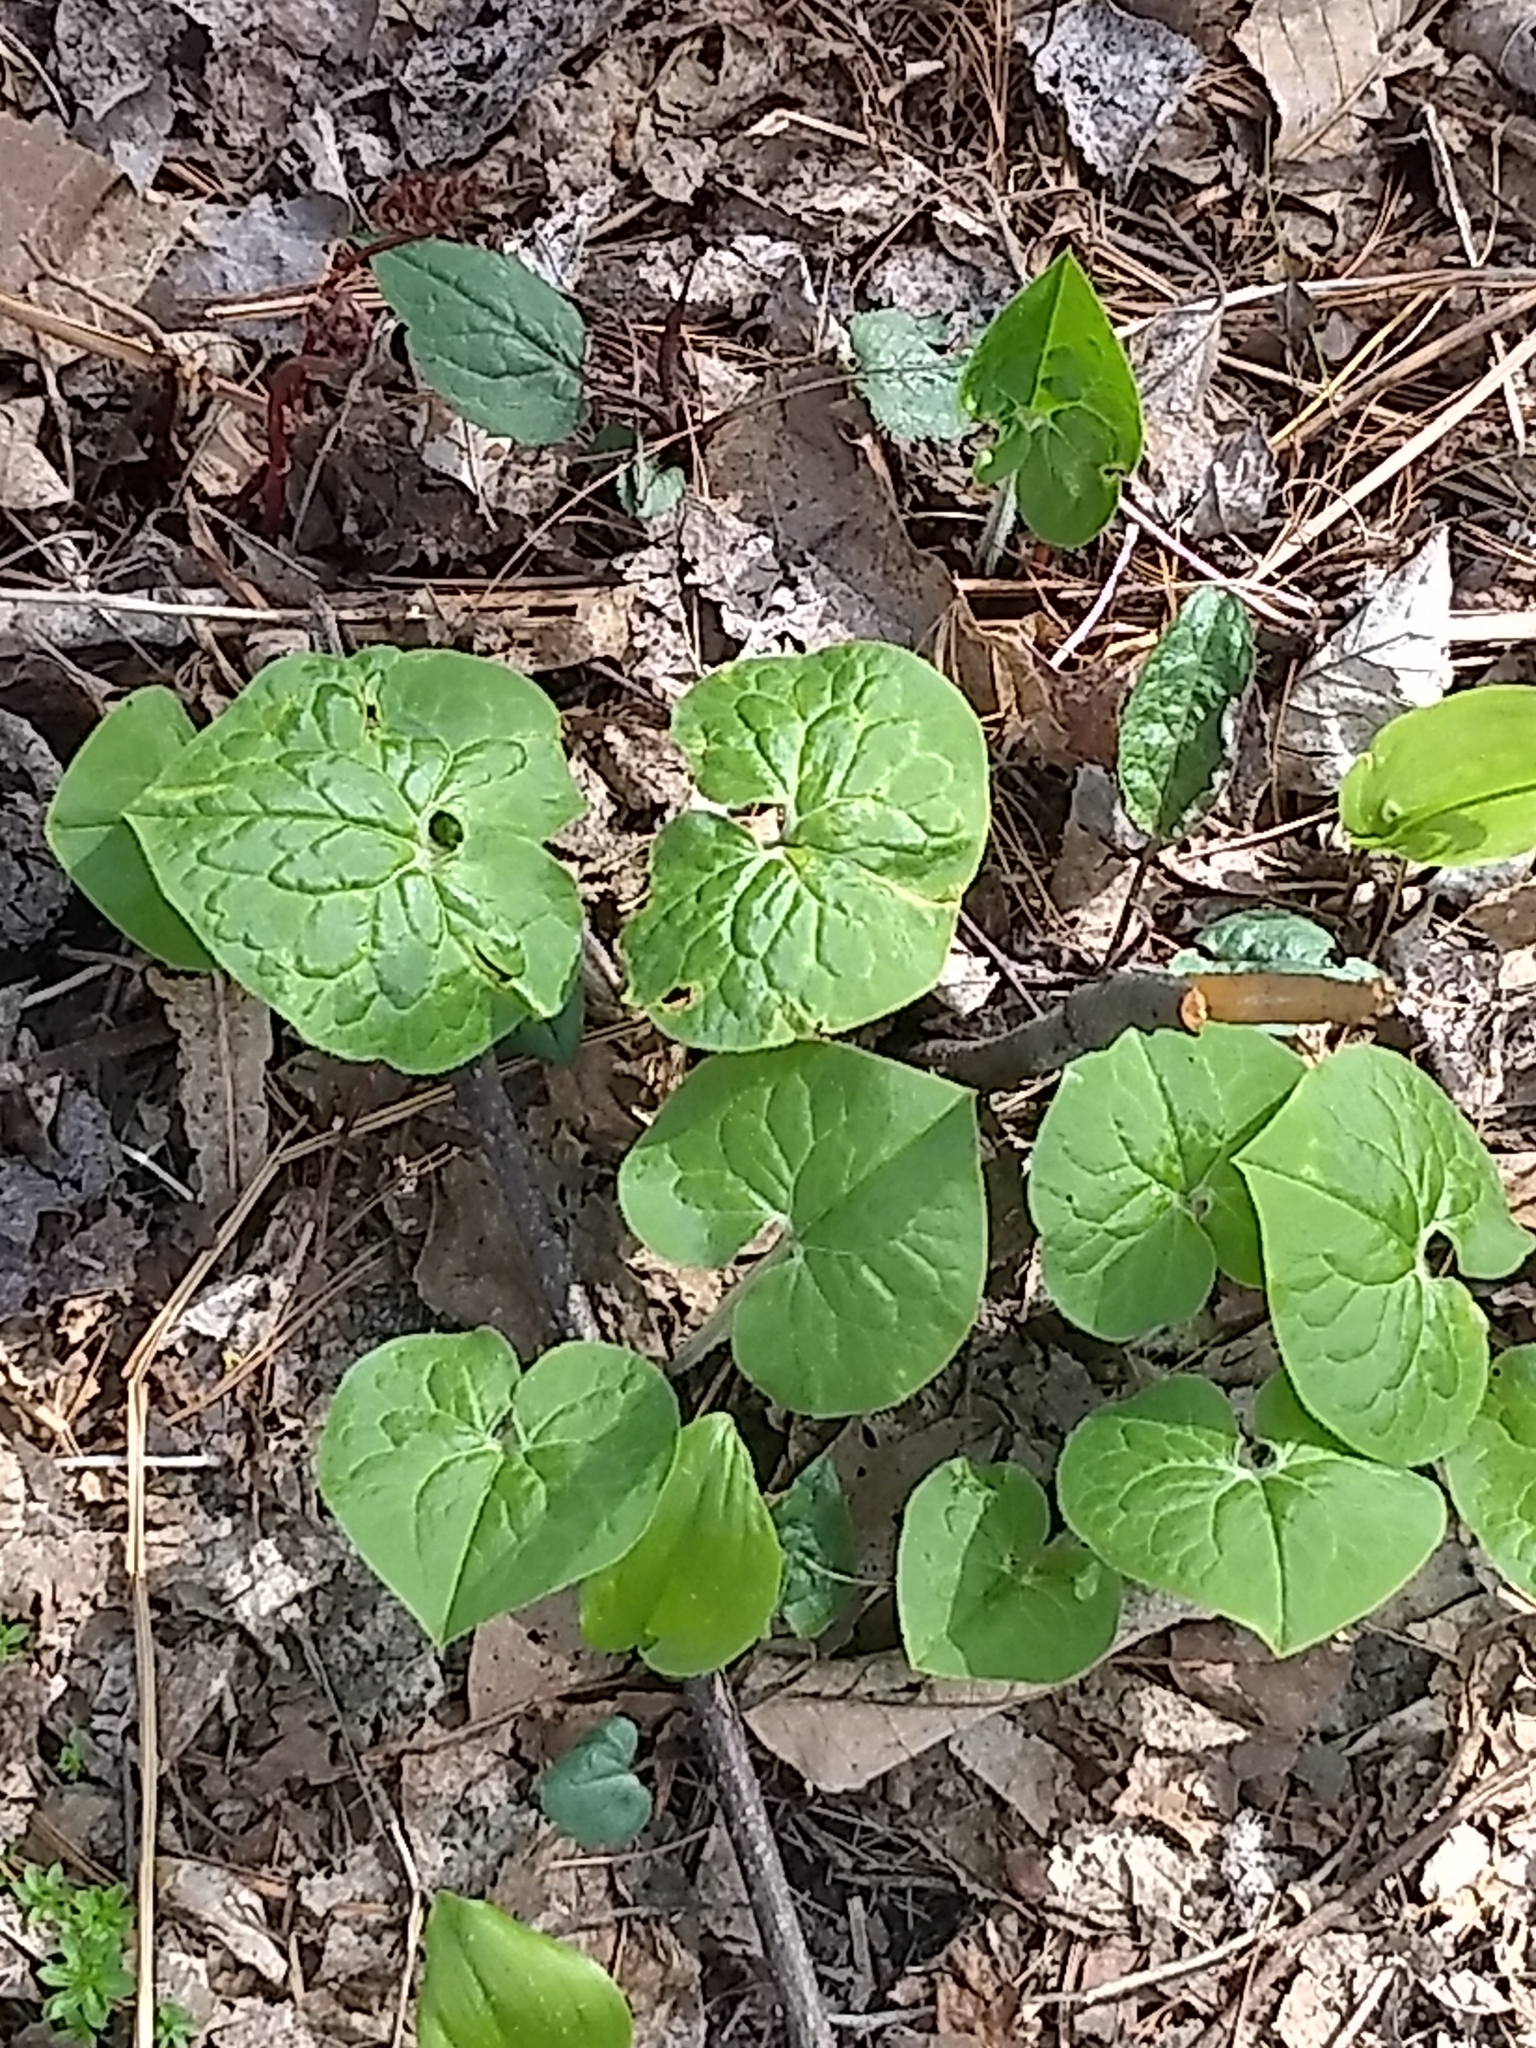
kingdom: Plantae
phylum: Tracheophyta
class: Magnoliopsida
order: Piperales
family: Aristolochiaceae
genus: Asarum
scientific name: Asarum canadense
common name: Wild ginger
